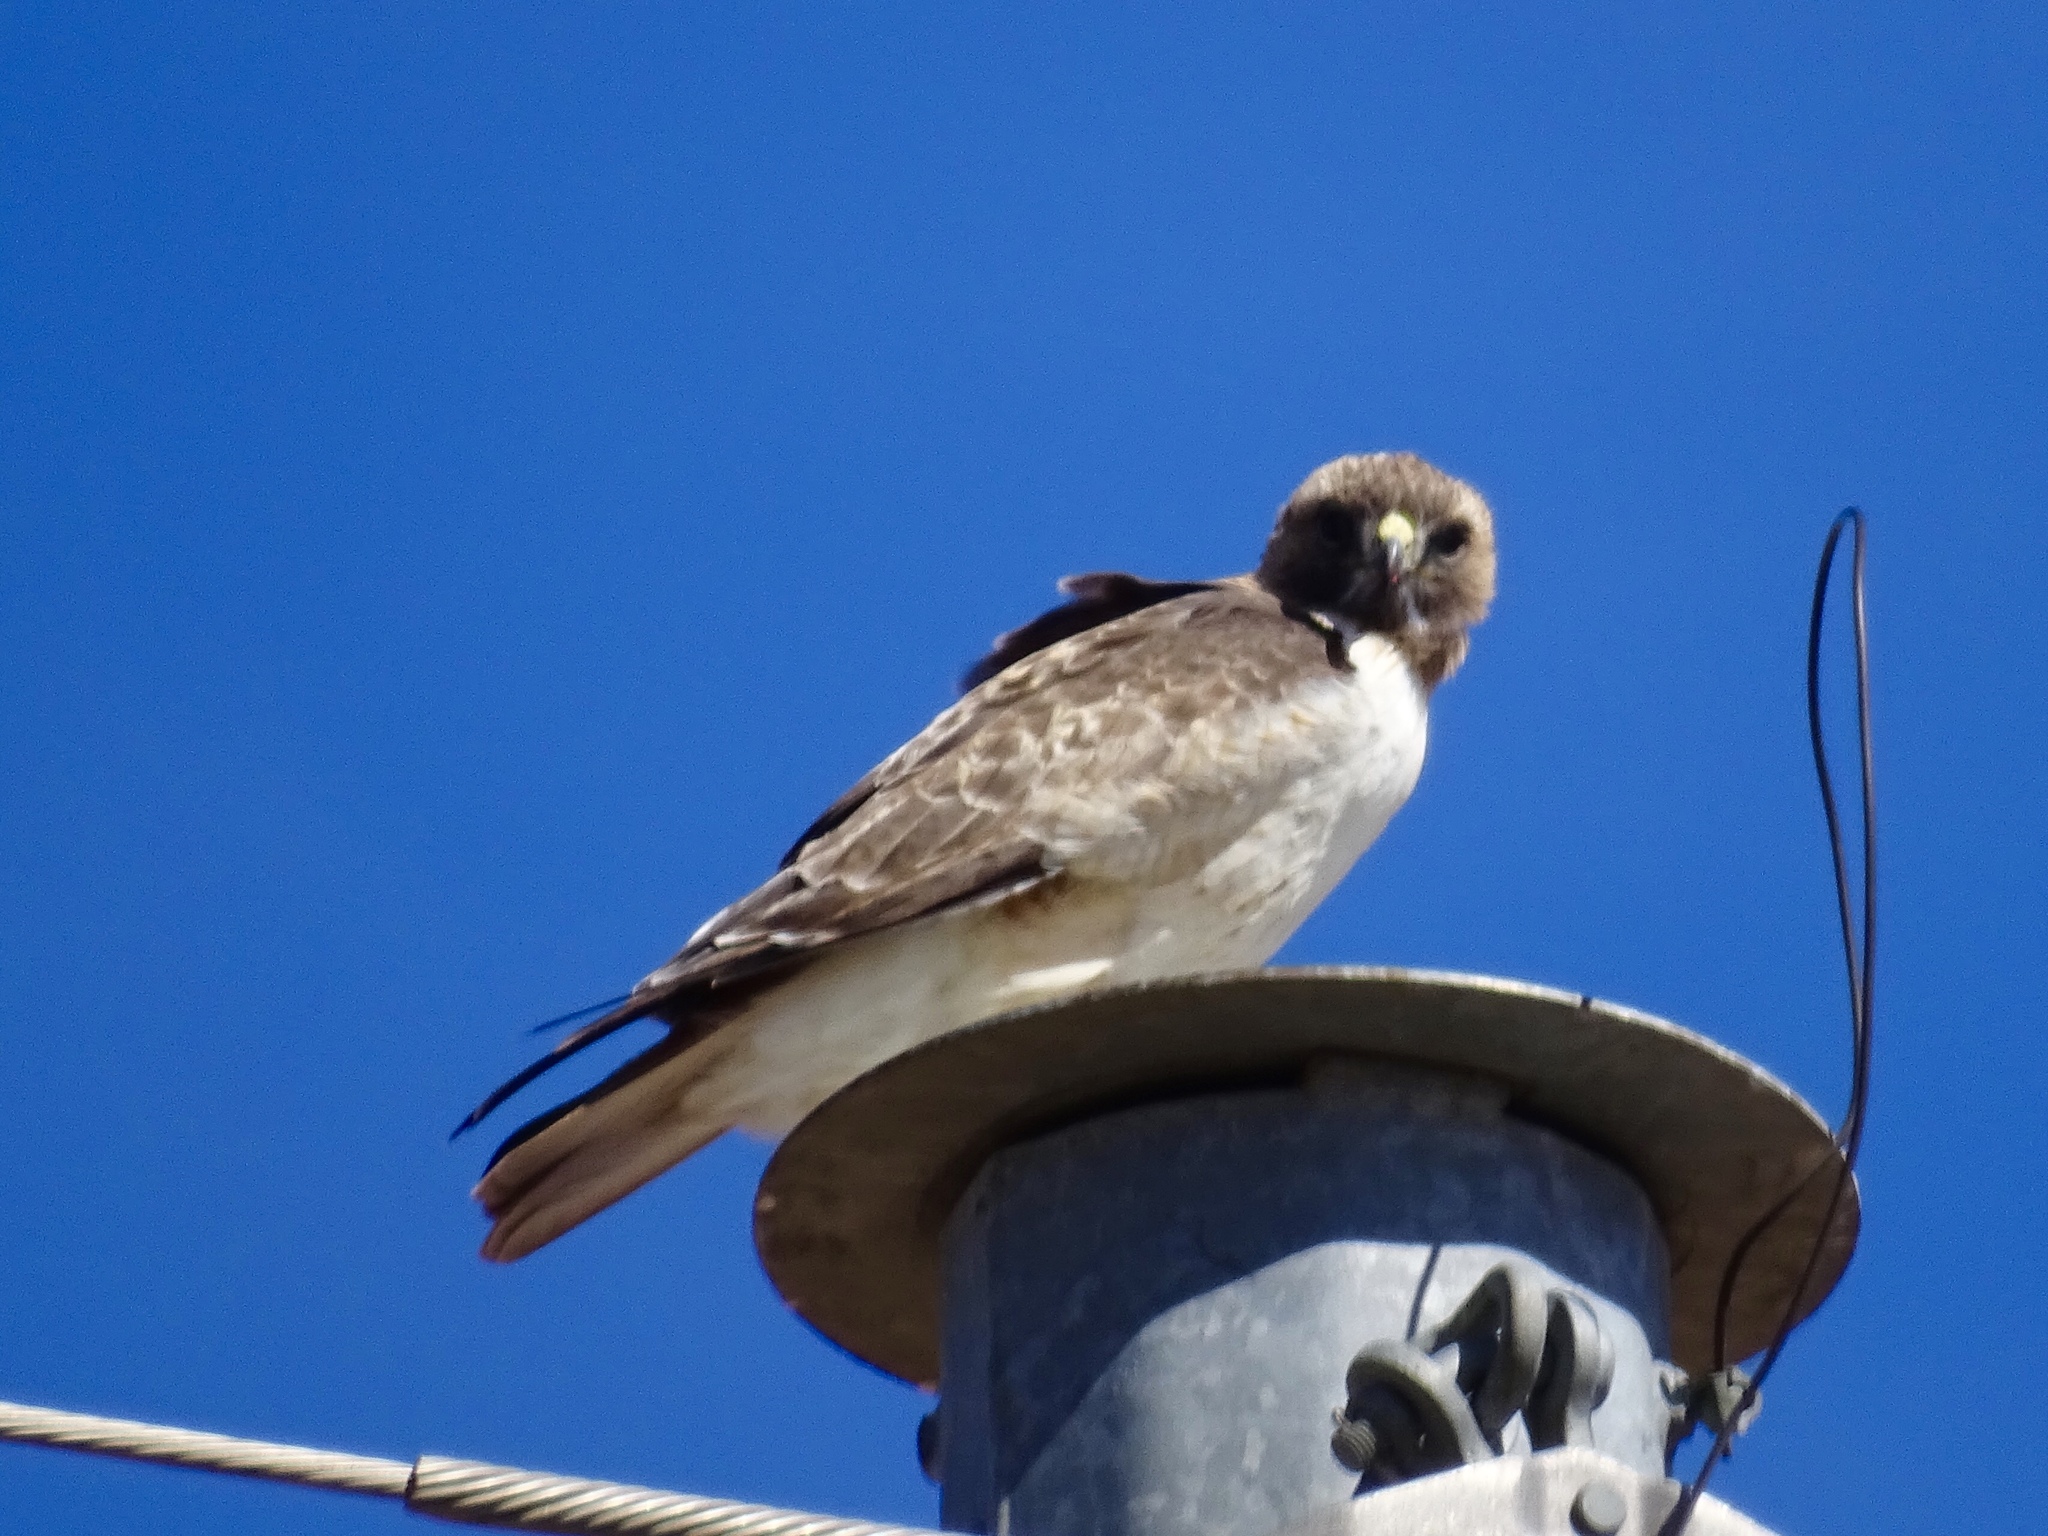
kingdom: Animalia
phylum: Chordata
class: Aves
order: Accipitriformes
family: Accipitridae
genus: Buteo
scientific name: Buteo jamaicensis
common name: Red-tailed hawk
